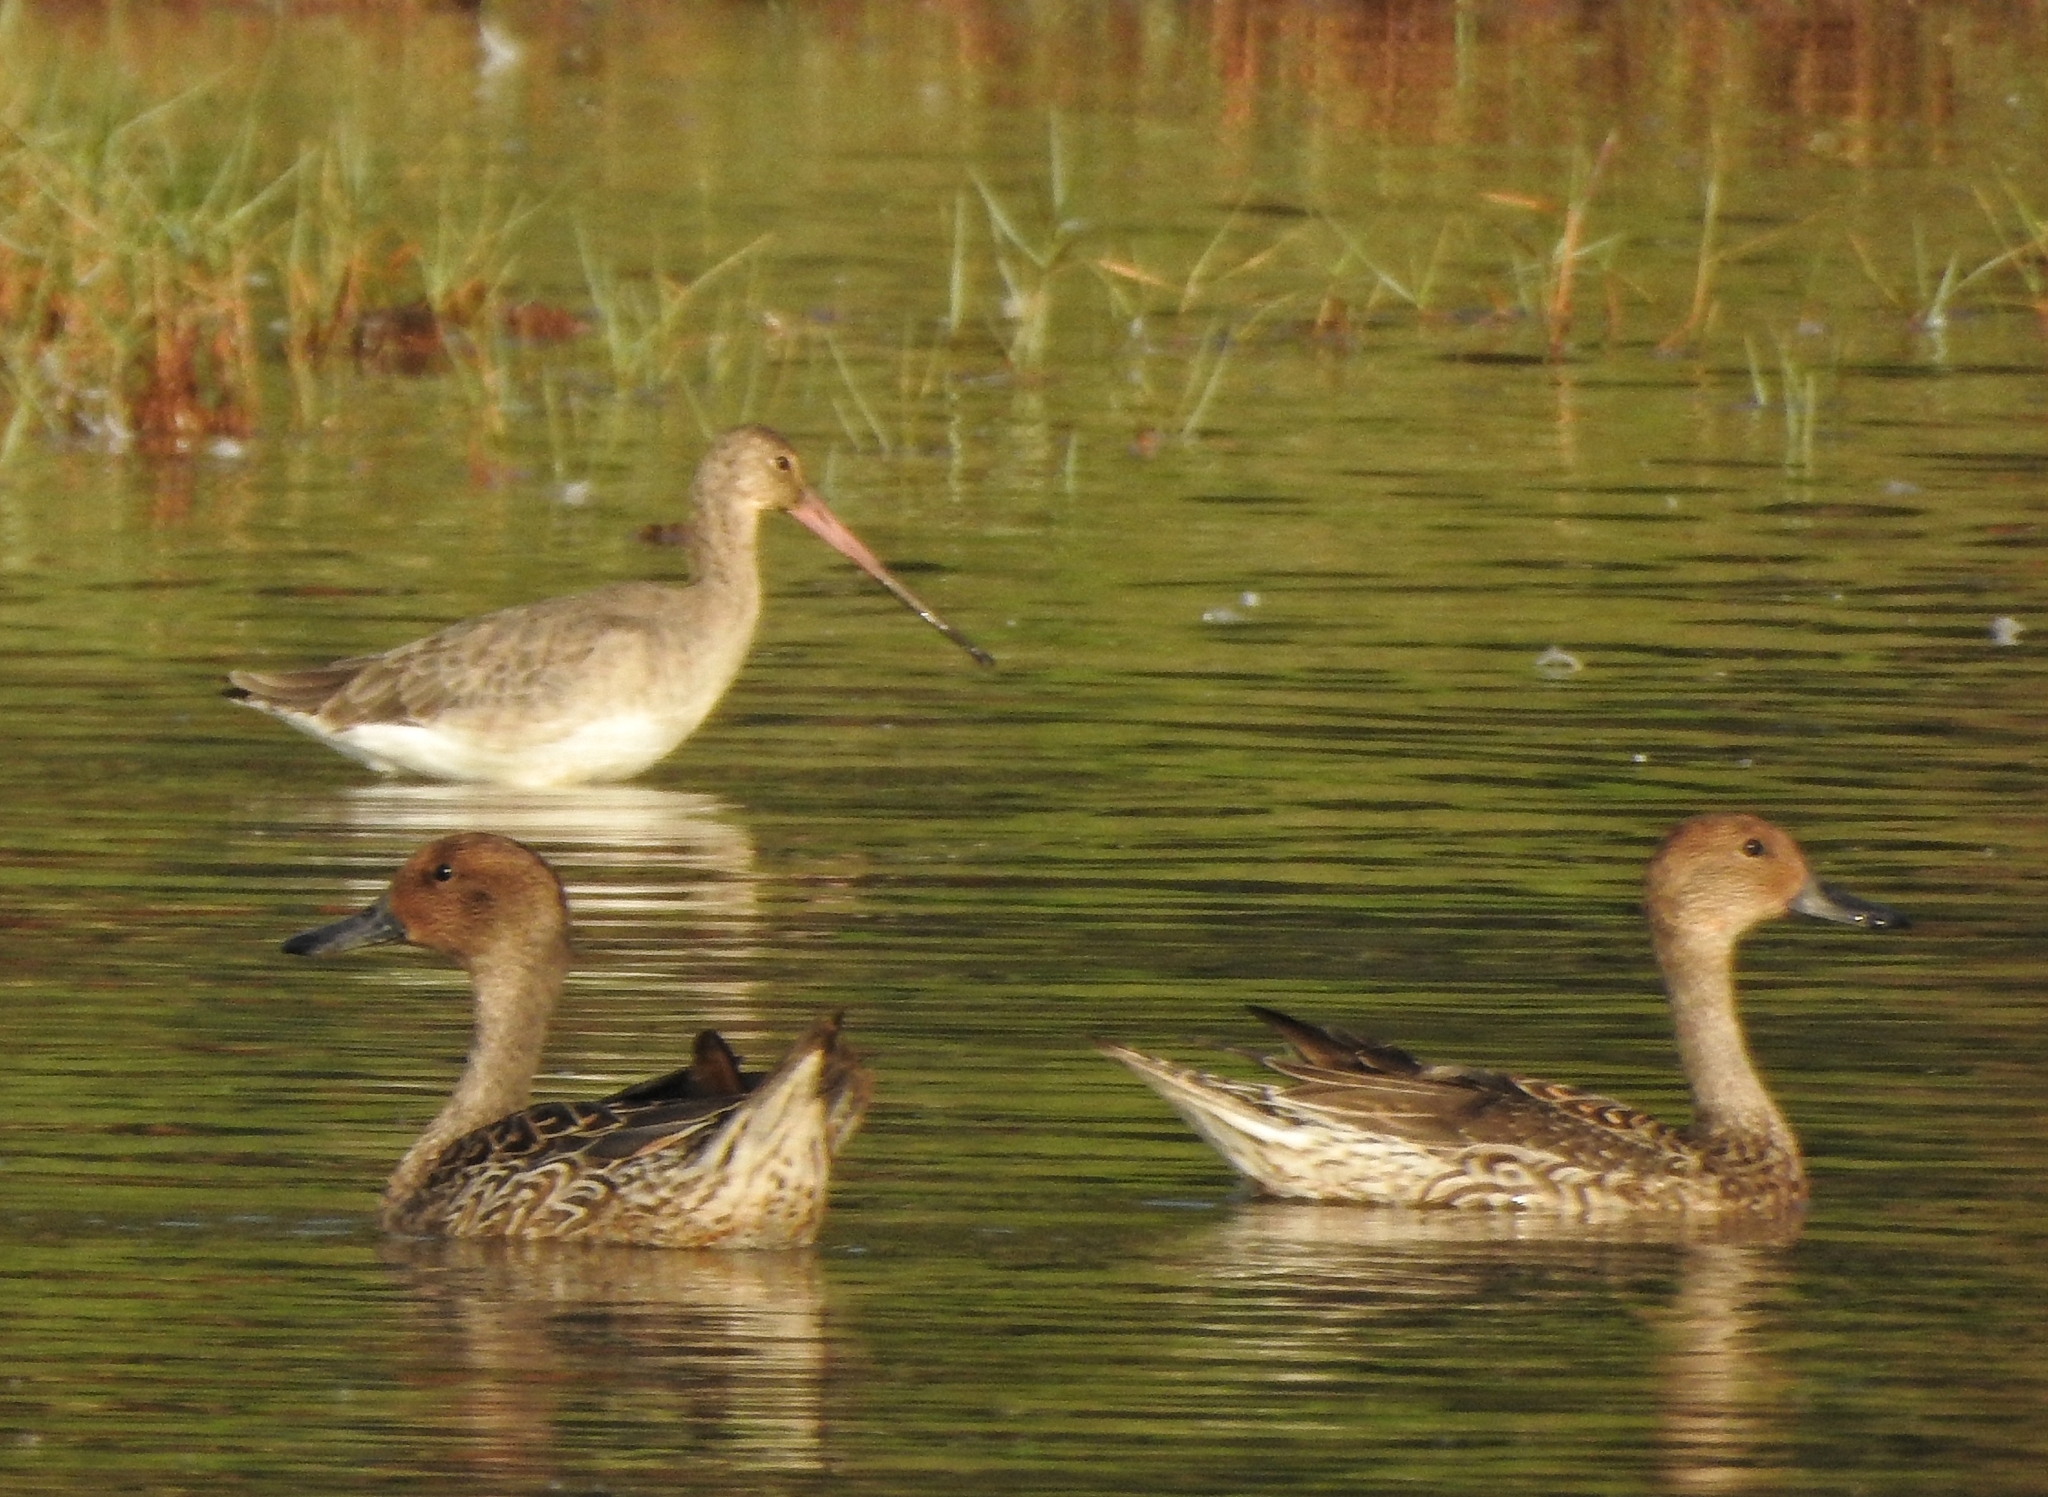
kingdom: Animalia
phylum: Chordata
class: Aves
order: Charadriiformes
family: Scolopacidae
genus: Limosa
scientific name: Limosa limosa
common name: Black-tailed godwit
